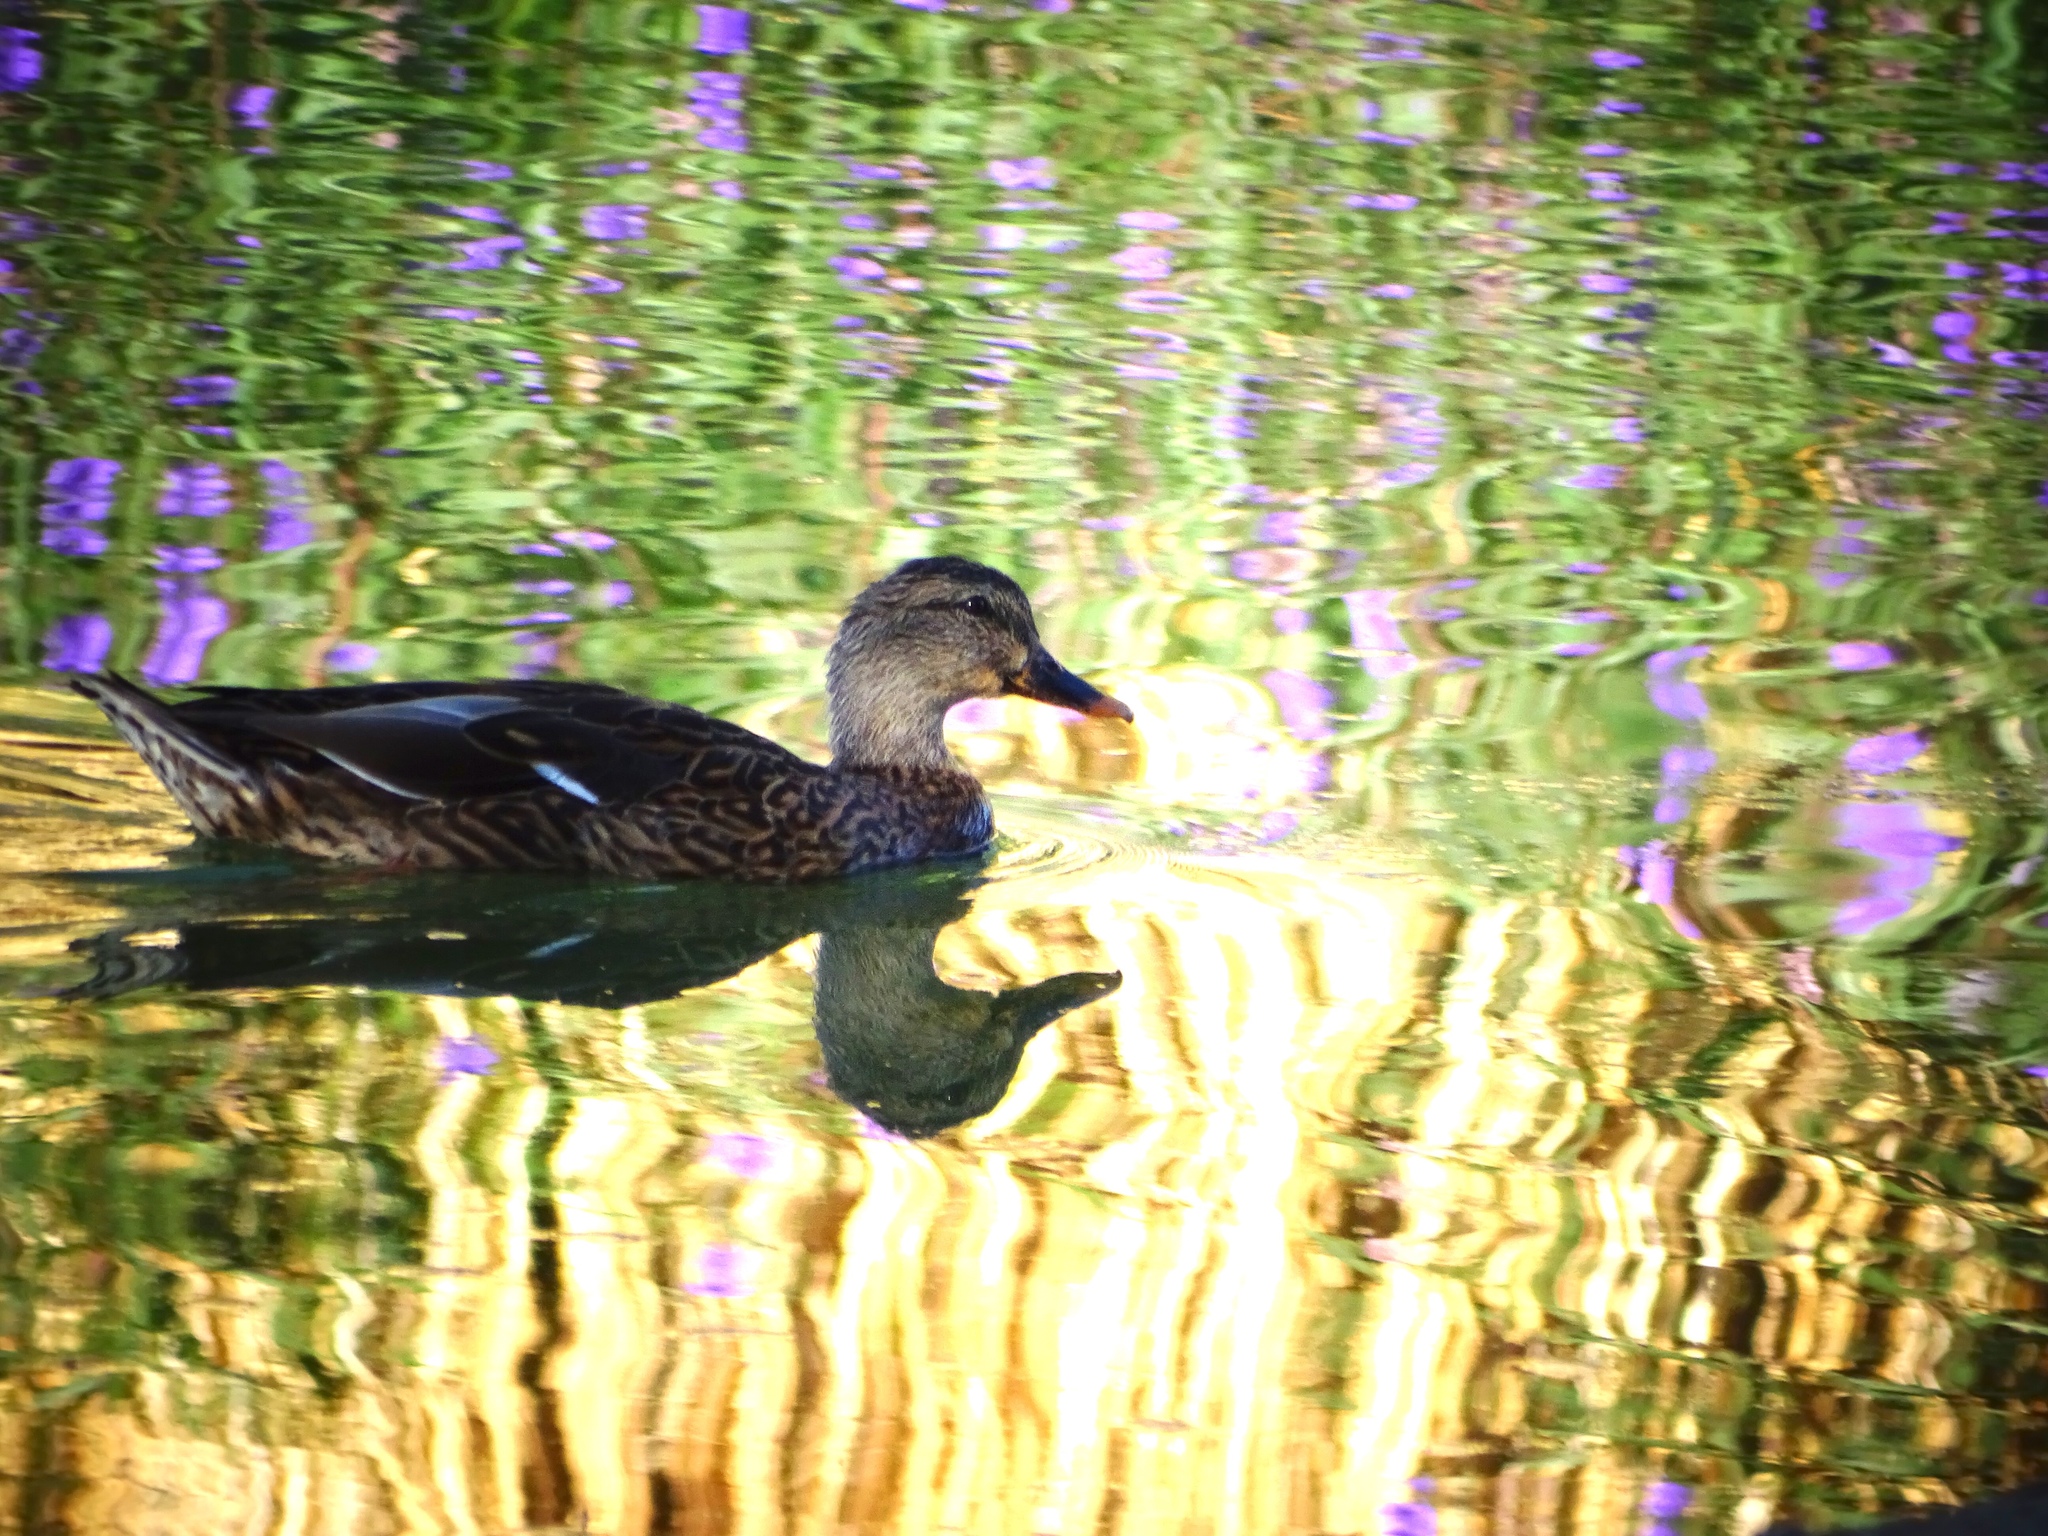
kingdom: Animalia
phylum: Chordata
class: Aves
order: Anseriformes
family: Anatidae
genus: Anas
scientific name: Anas platyrhynchos
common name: Mallard
